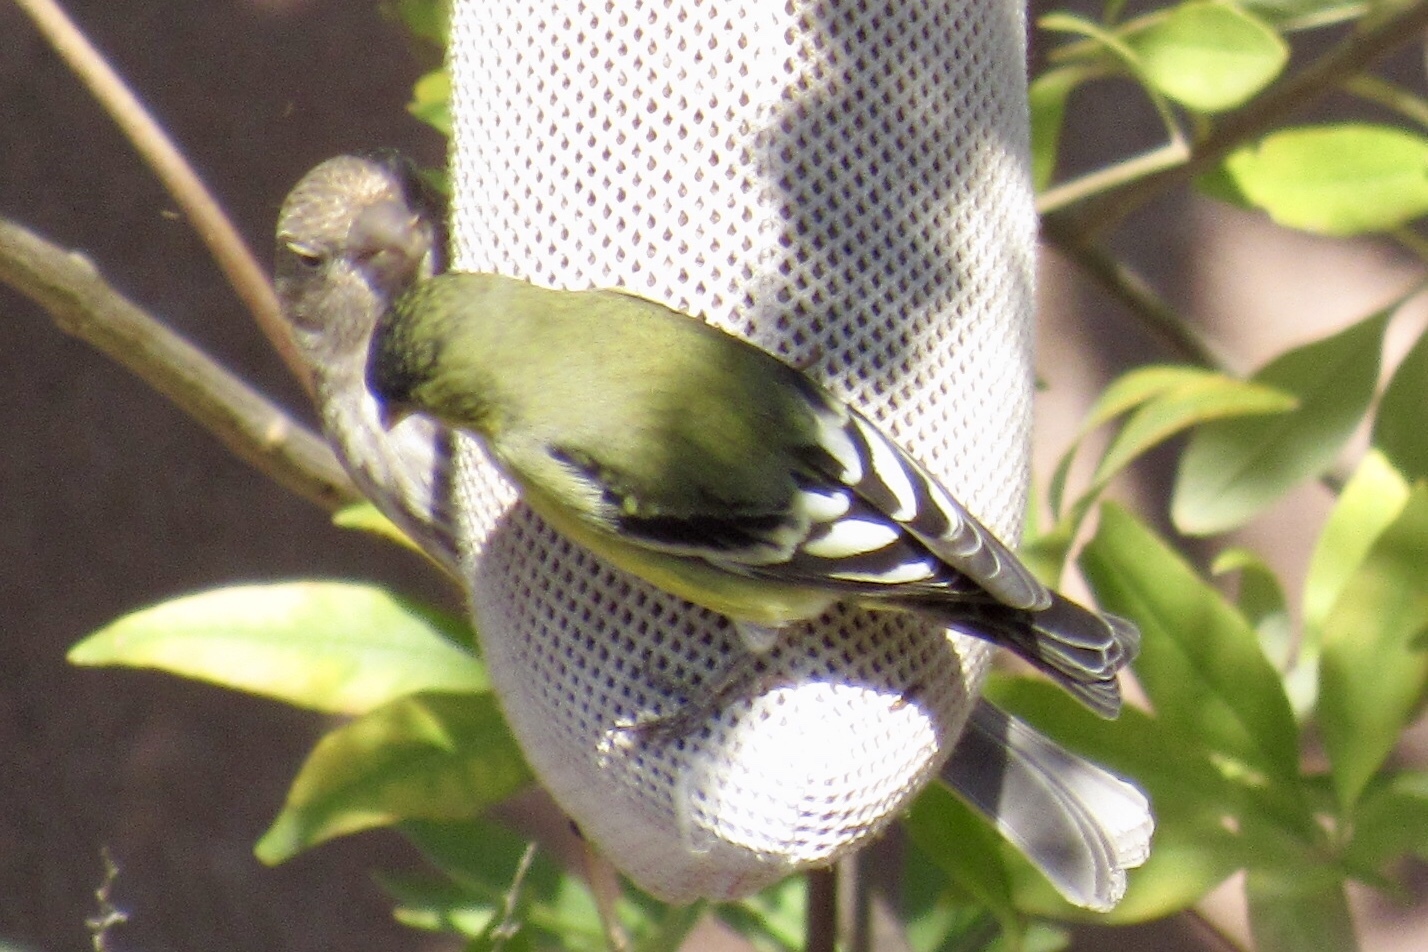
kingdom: Animalia
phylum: Chordata
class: Aves
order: Passeriformes
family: Fringillidae
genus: Spinus
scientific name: Spinus psaltria
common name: Lesser goldfinch
